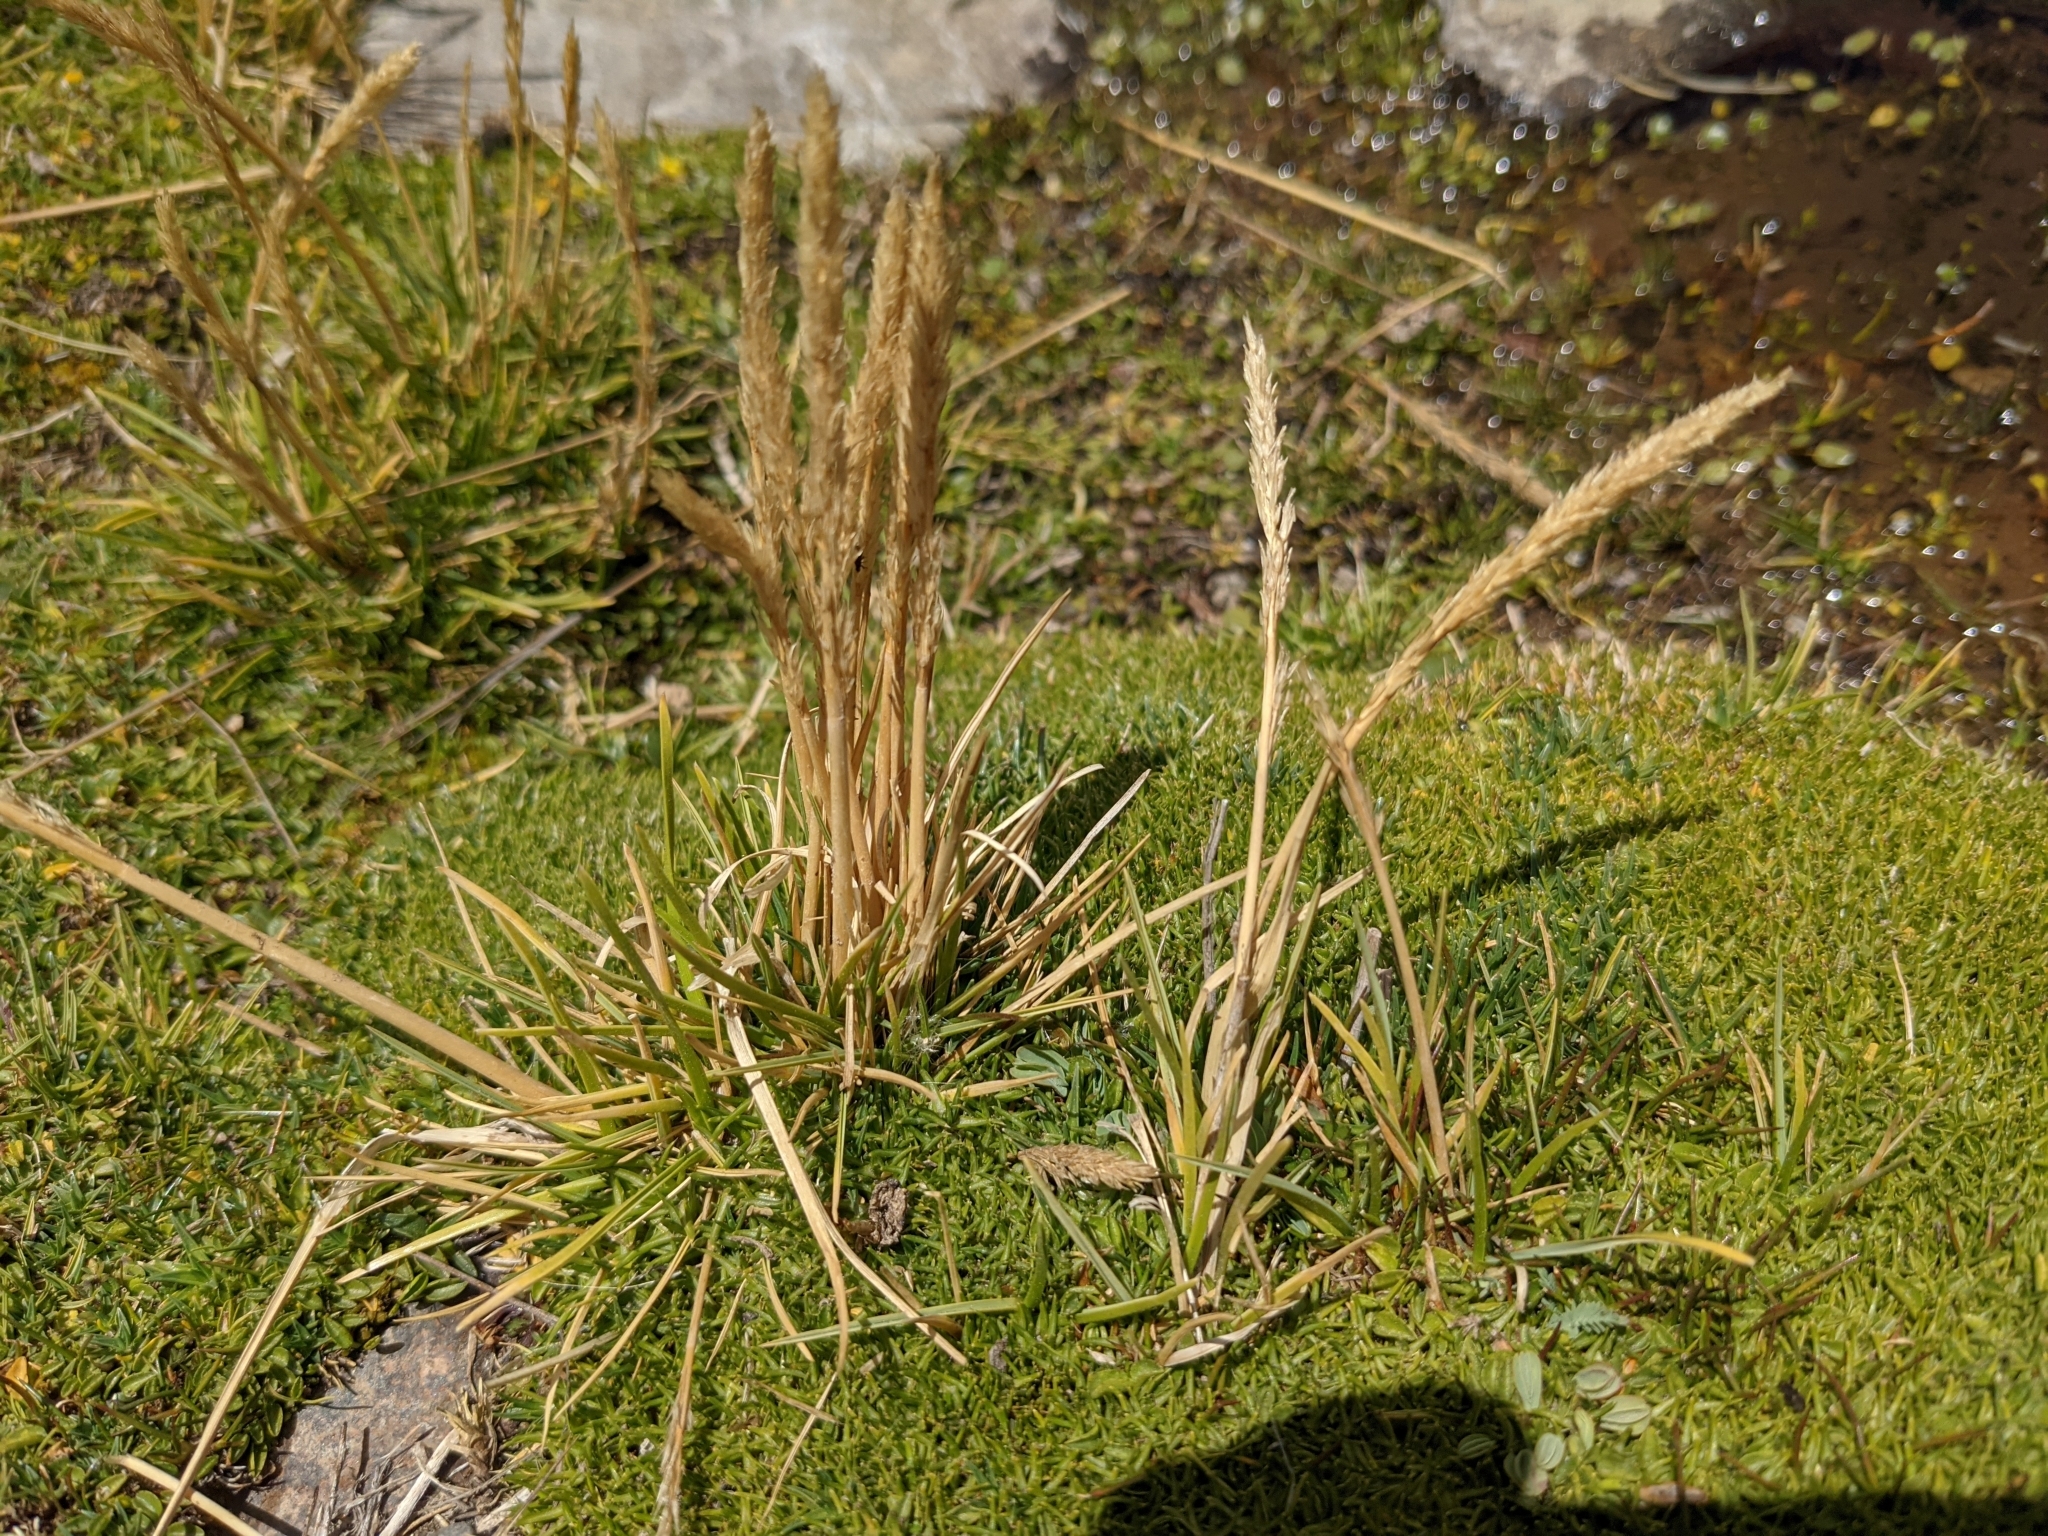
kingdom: Plantae
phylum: Tracheophyta
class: Liliopsida
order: Poales
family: Poaceae
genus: Cinnagrostis
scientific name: Cinnagrostis rigescens
